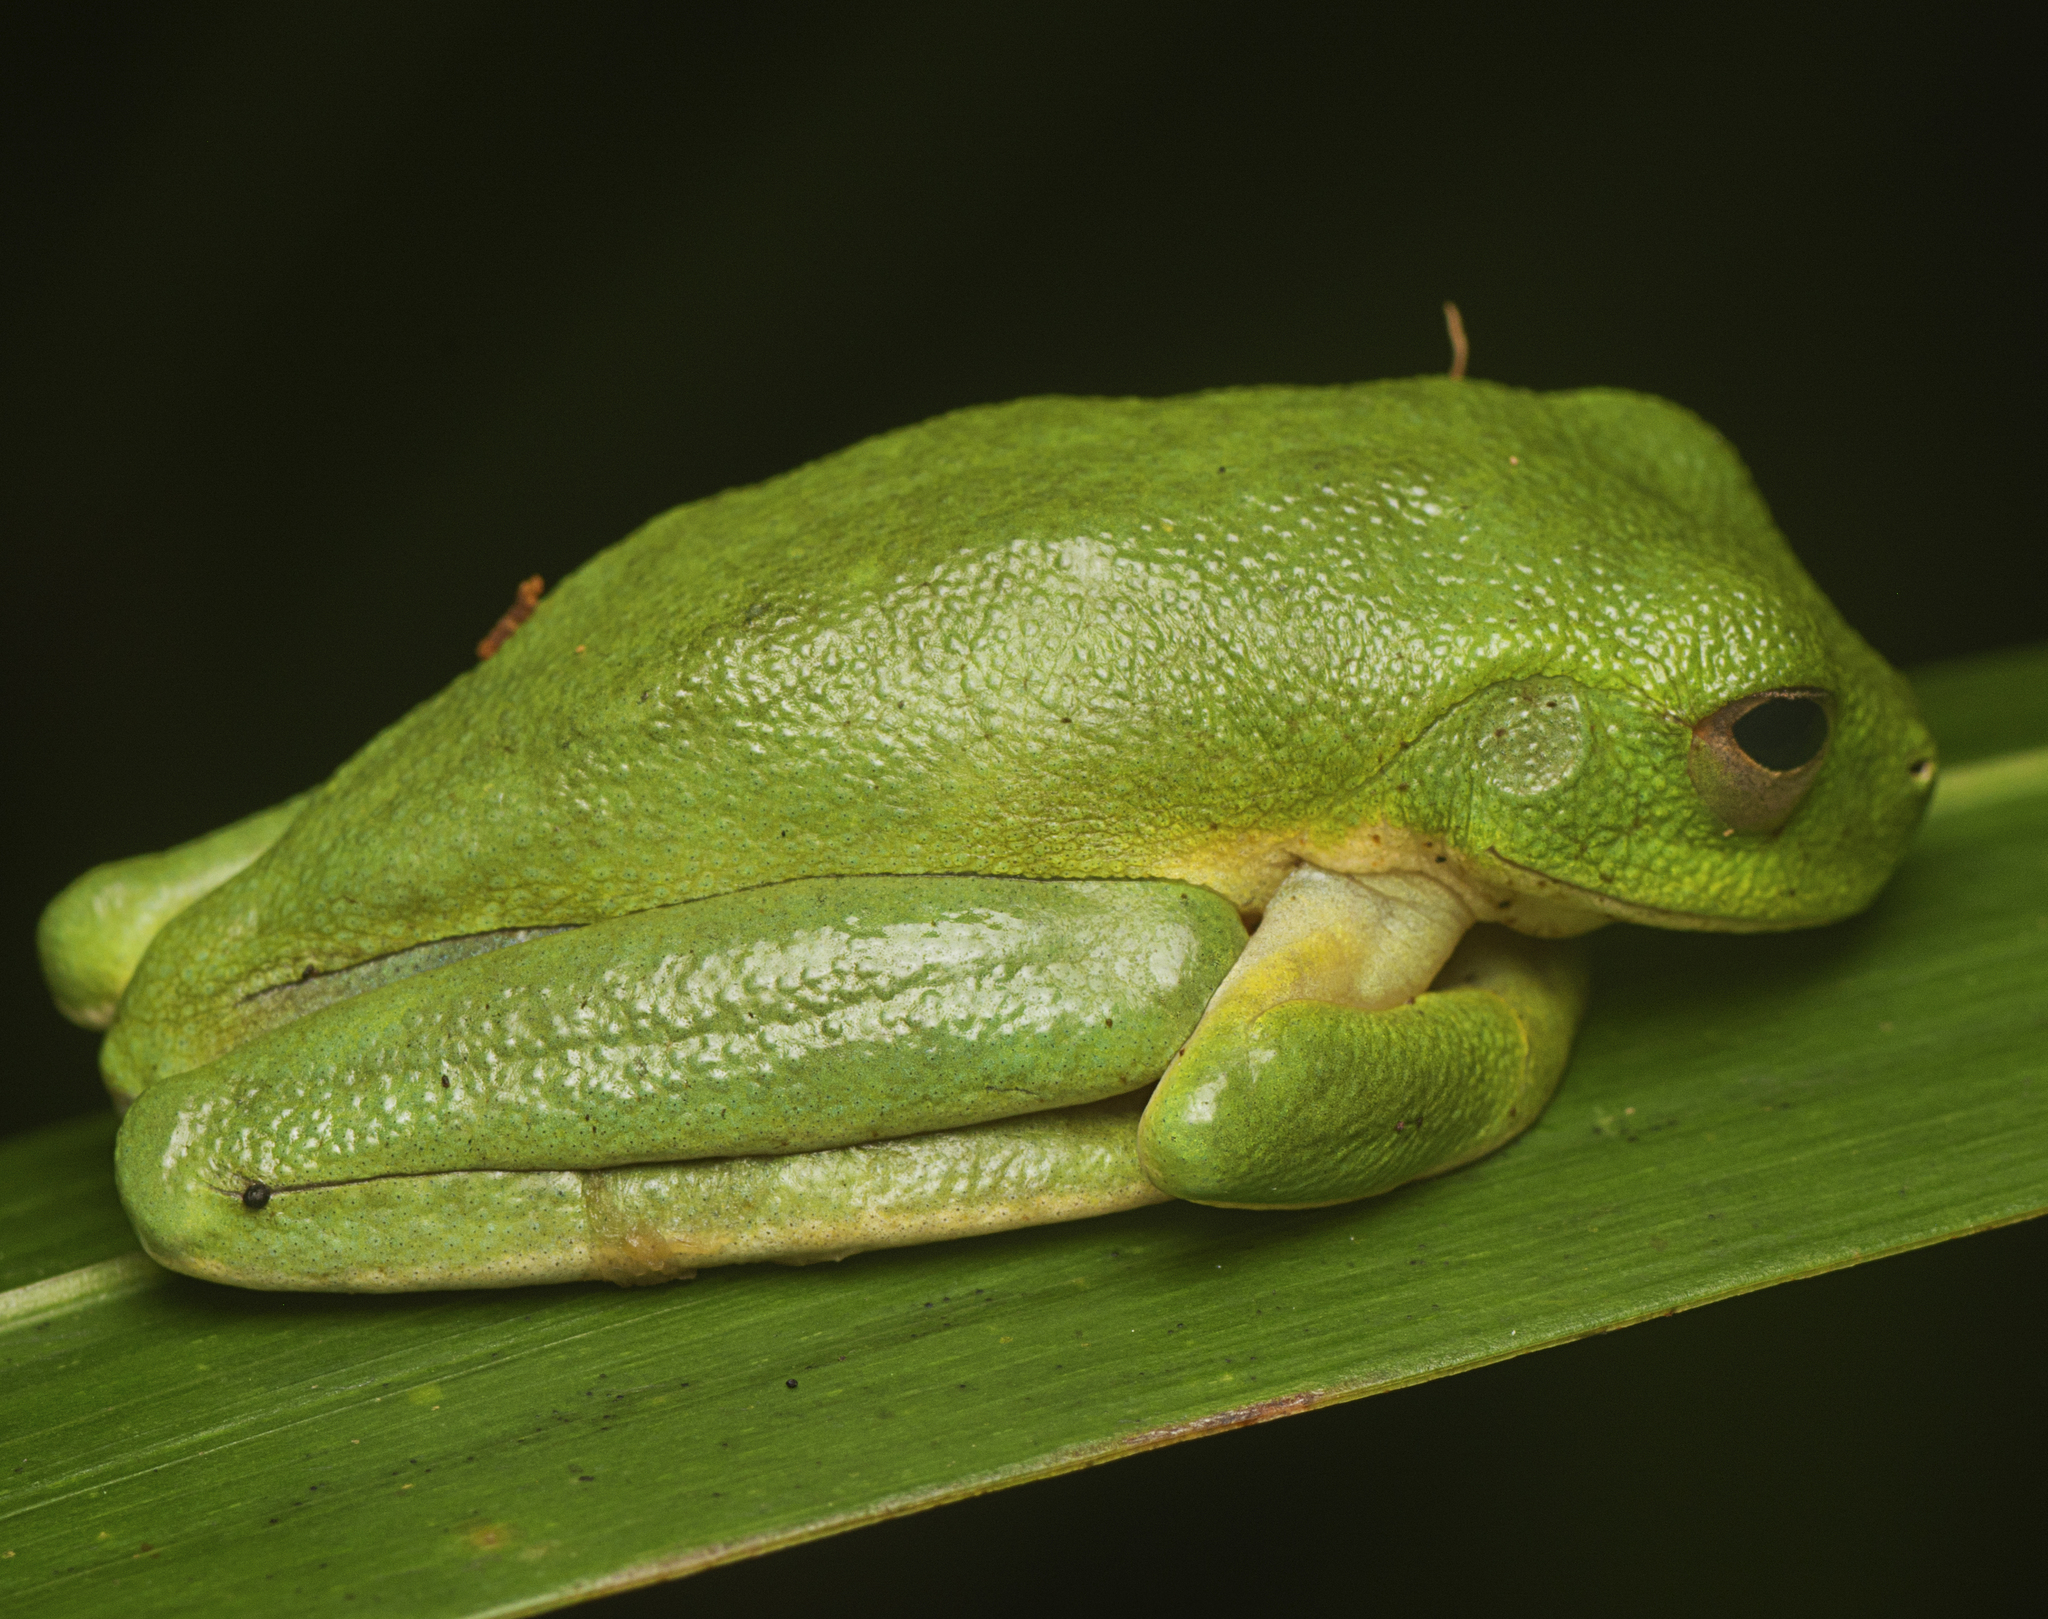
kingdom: Animalia
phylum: Chordata
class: Amphibia
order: Anura
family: Pelodryadidae
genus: Ranoidea
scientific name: Ranoidea chloris
